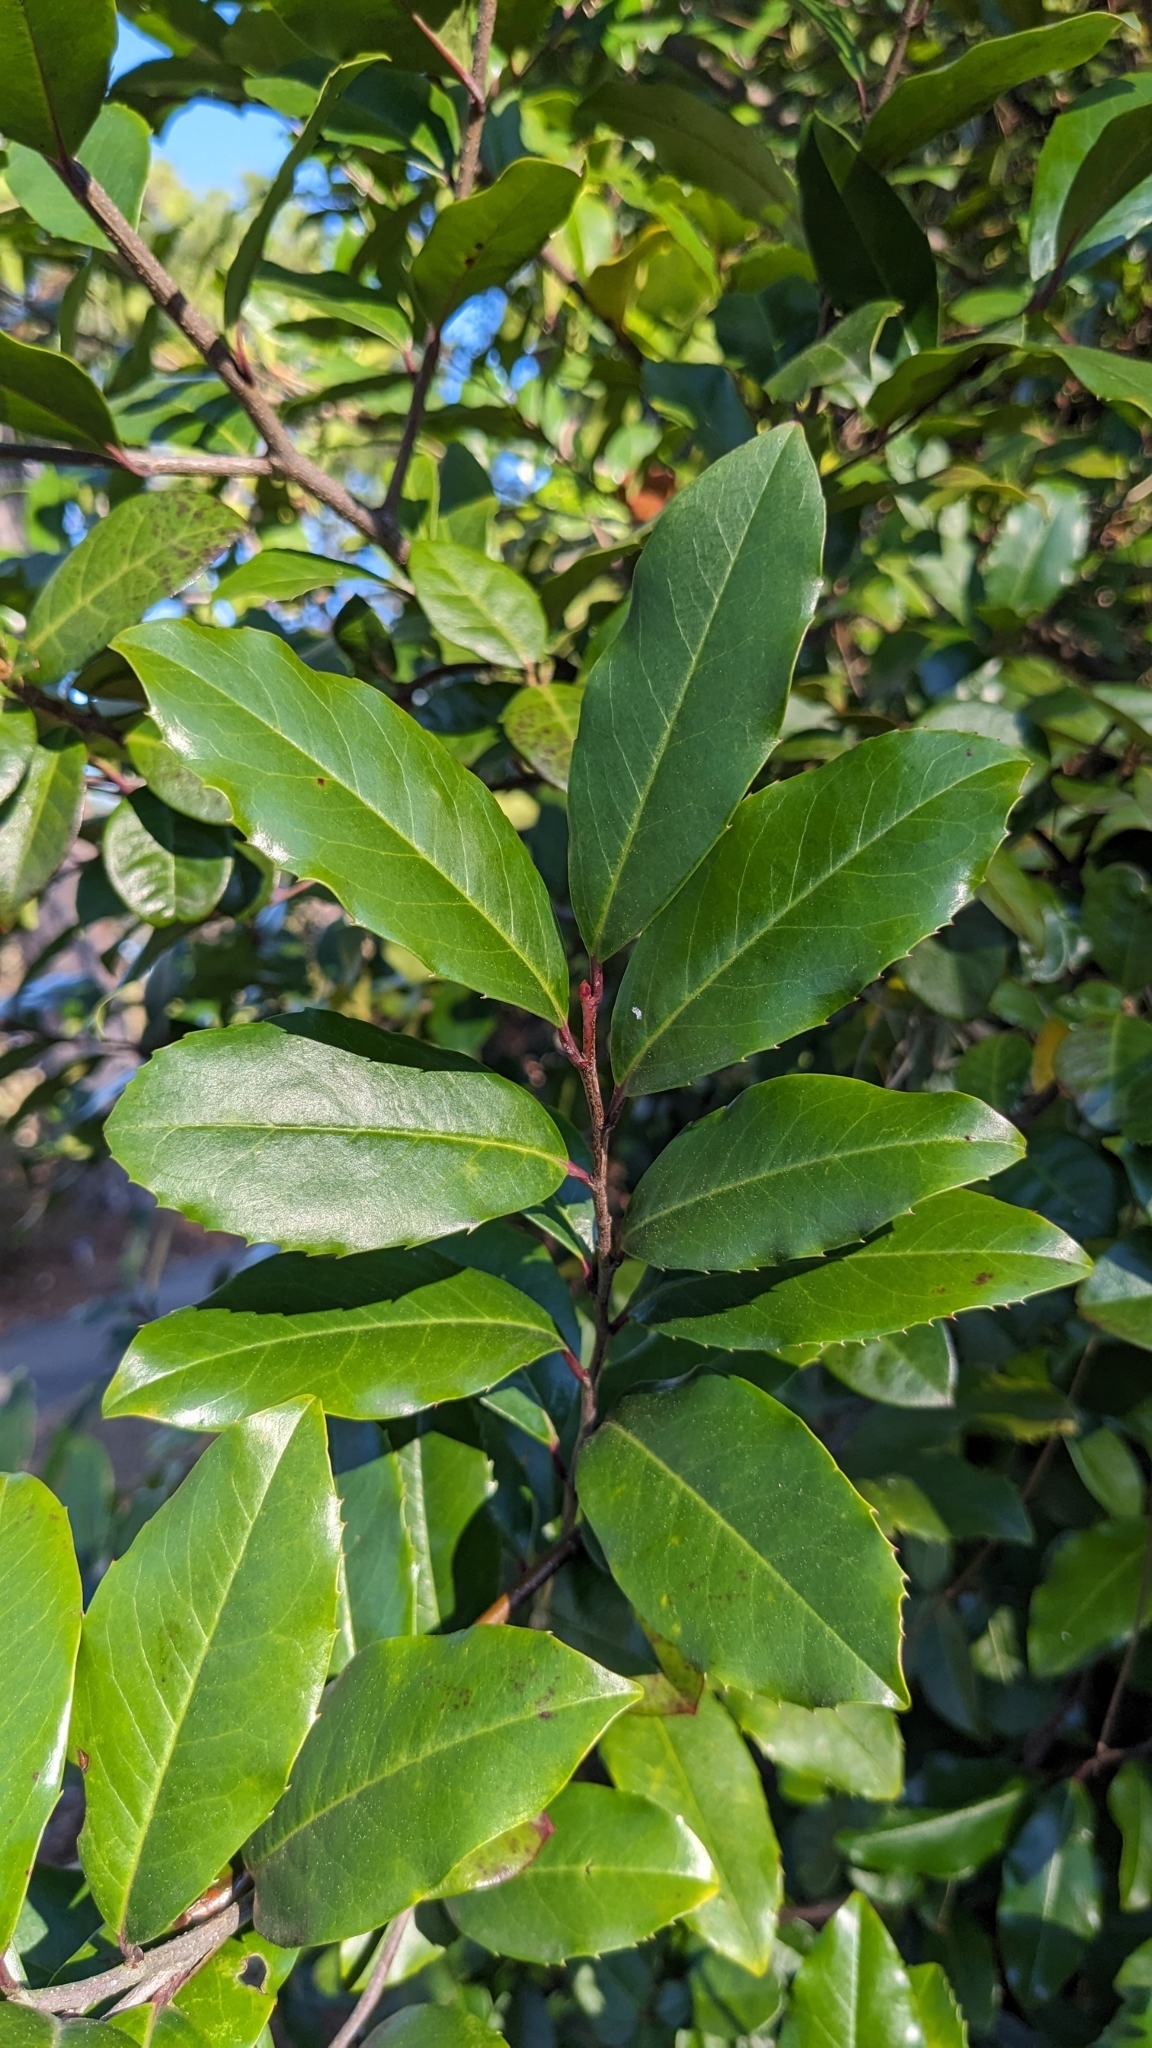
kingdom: Plantae
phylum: Tracheophyta
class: Magnoliopsida
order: Rosales
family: Rosaceae
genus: Prunus
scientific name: Prunus caroliniana
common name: Carolina laurel cherry
